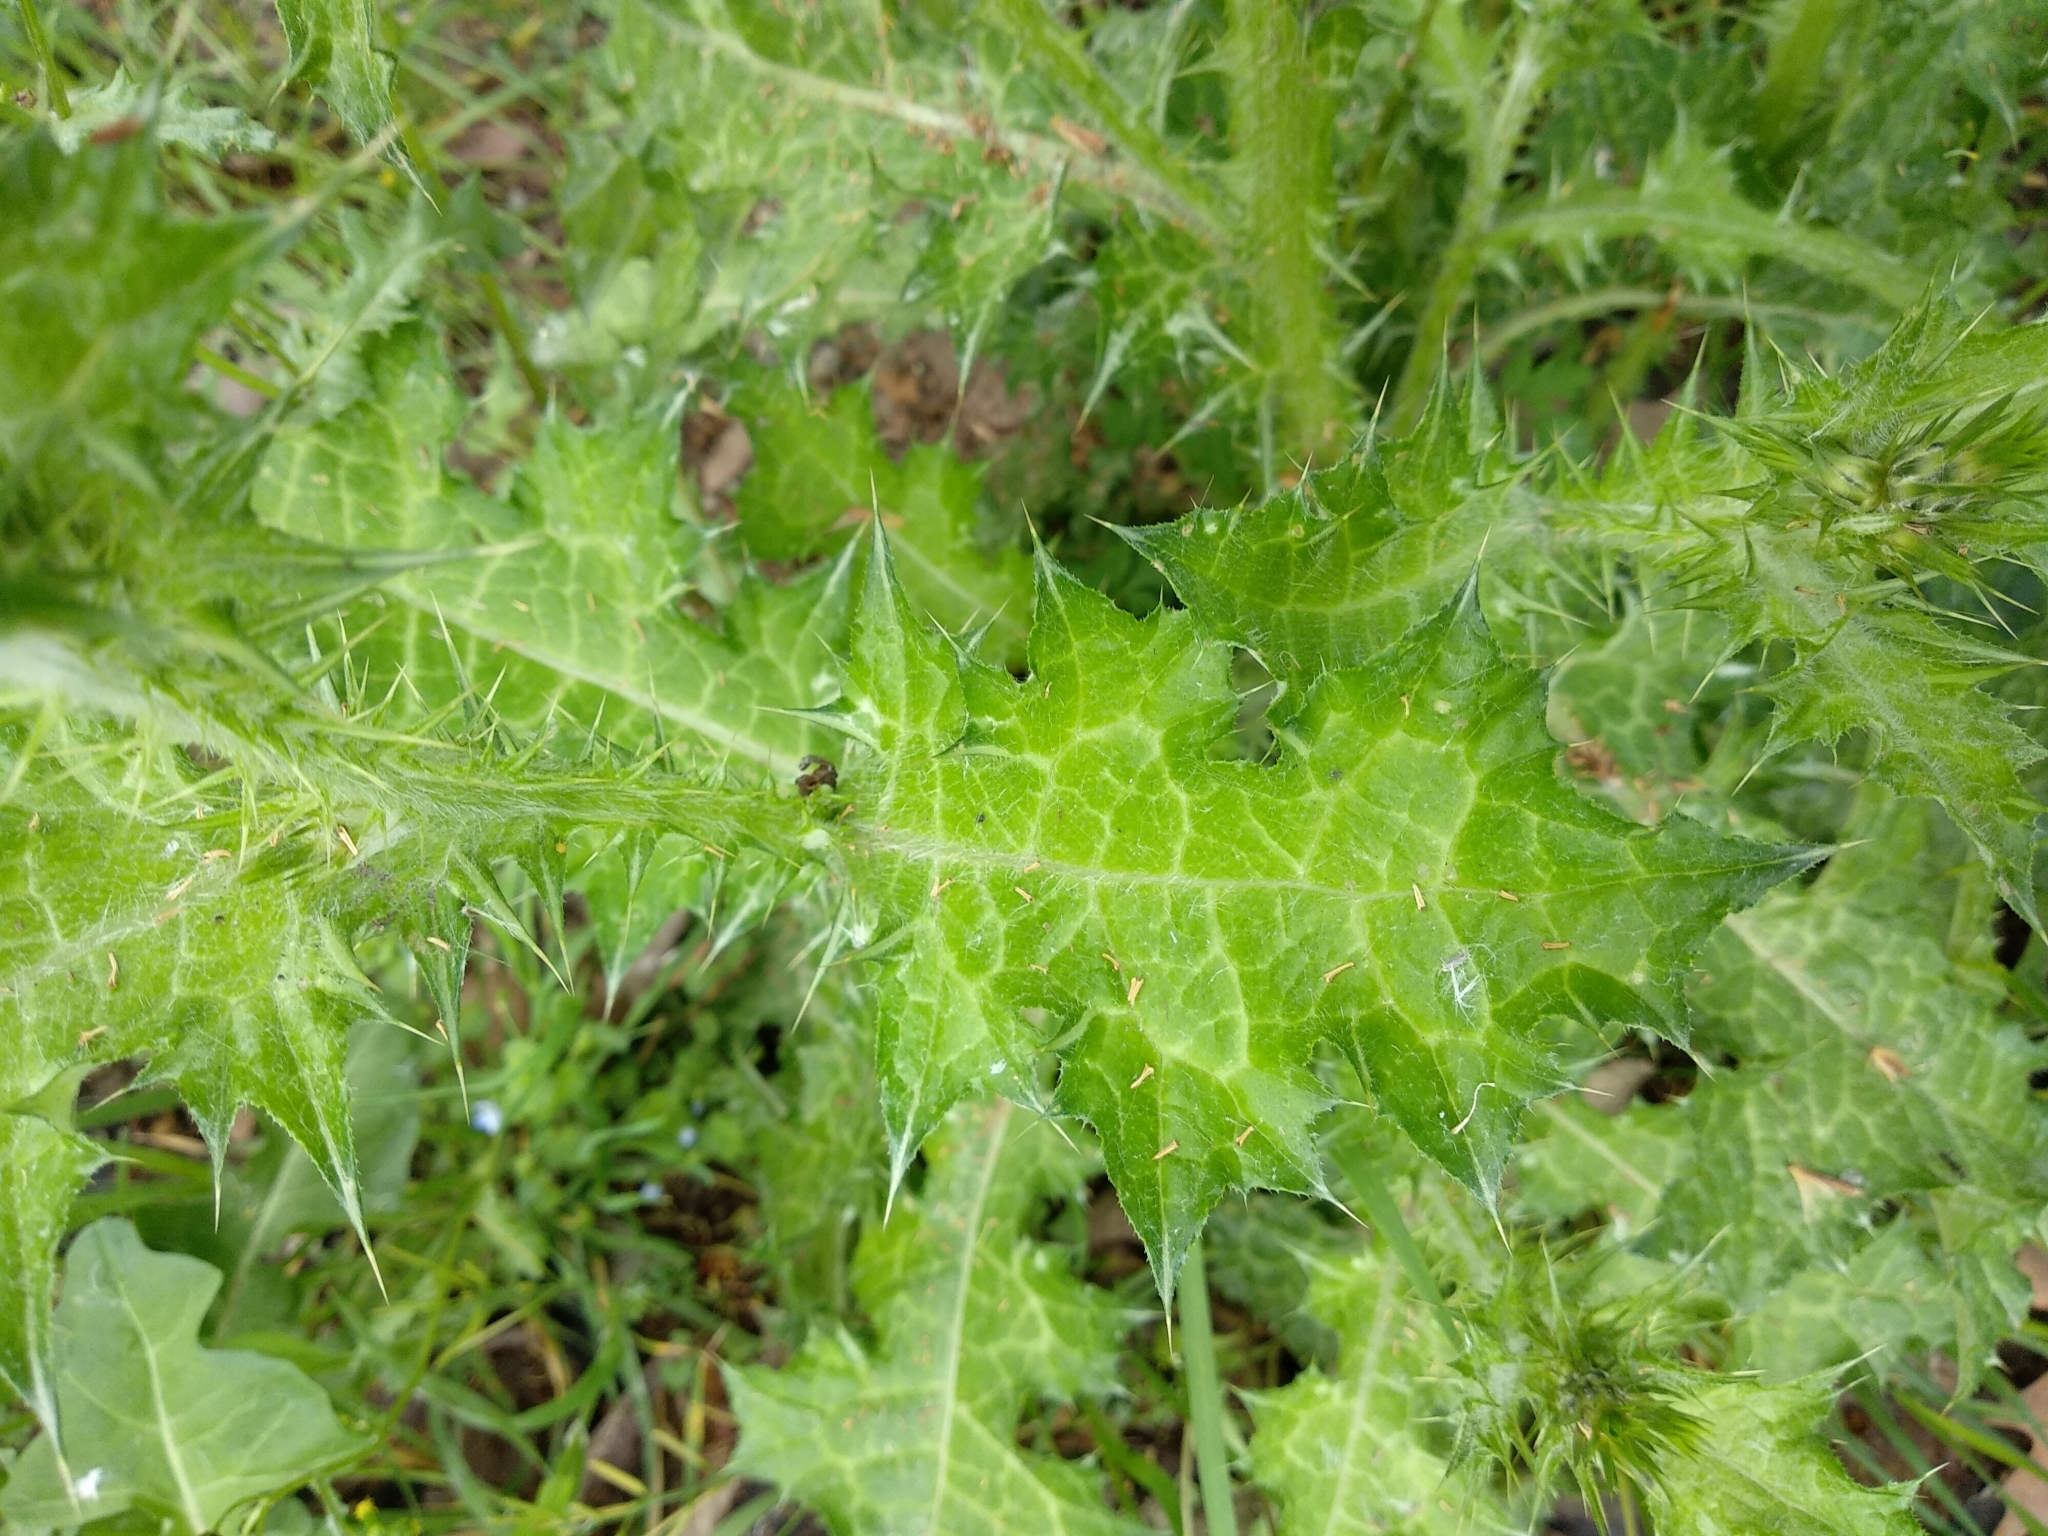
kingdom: Plantae
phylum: Tracheophyta
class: Magnoliopsida
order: Asterales
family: Asteraceae
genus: Carduus
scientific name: Carduus pycnocephalus
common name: Plymouth thistle
